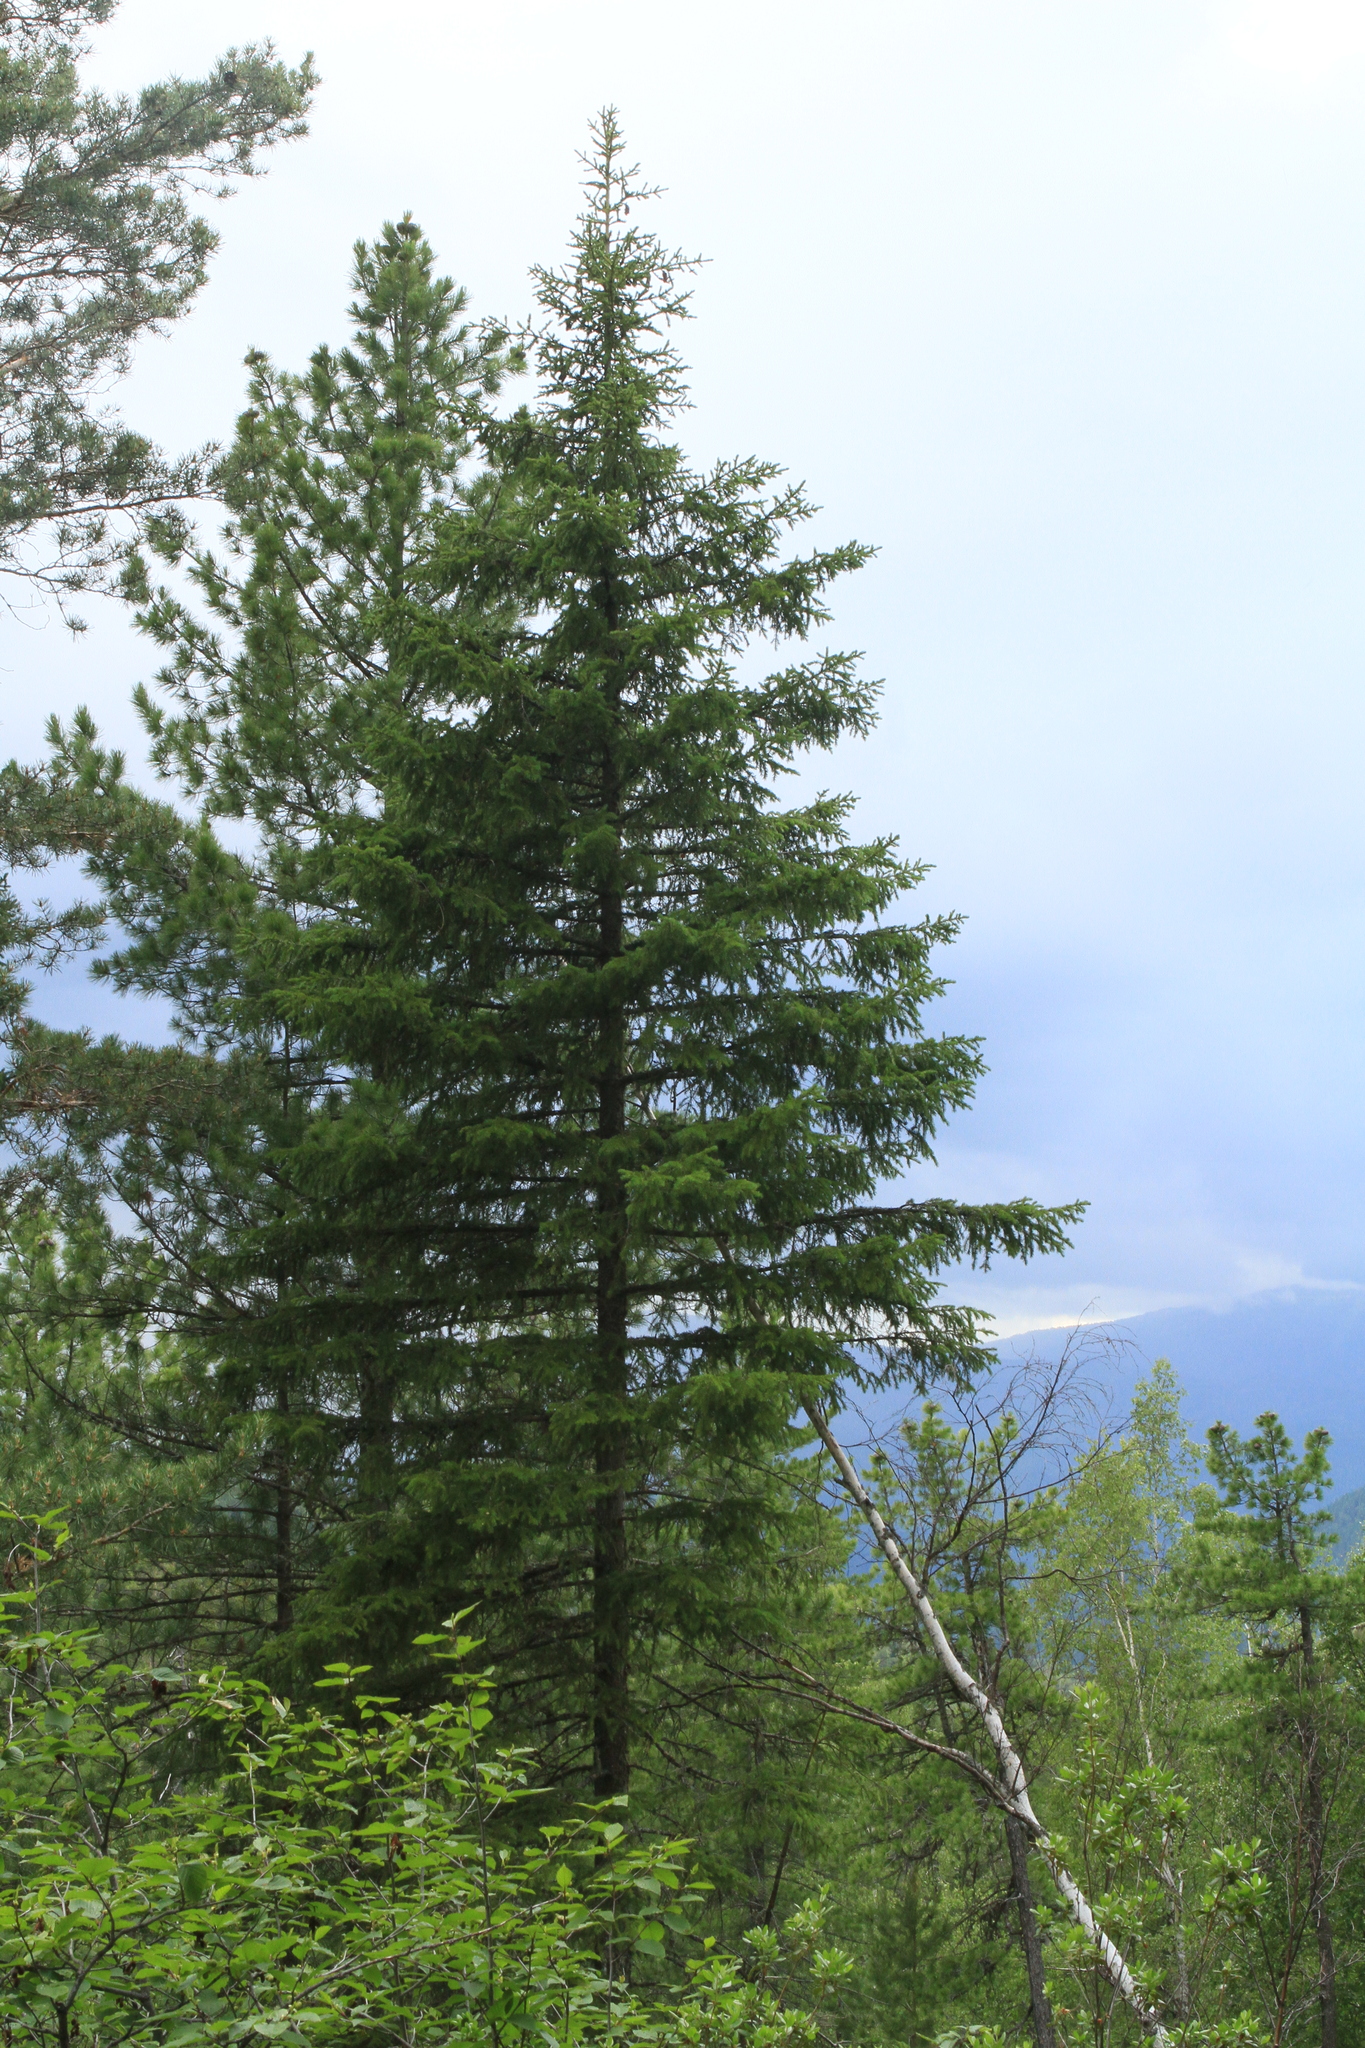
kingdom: Plantae
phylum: Tracheophyta
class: Pinopsida
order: Pinales
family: Pinaceae
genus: Picea
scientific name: Picea obovata
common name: Siberian spruce
